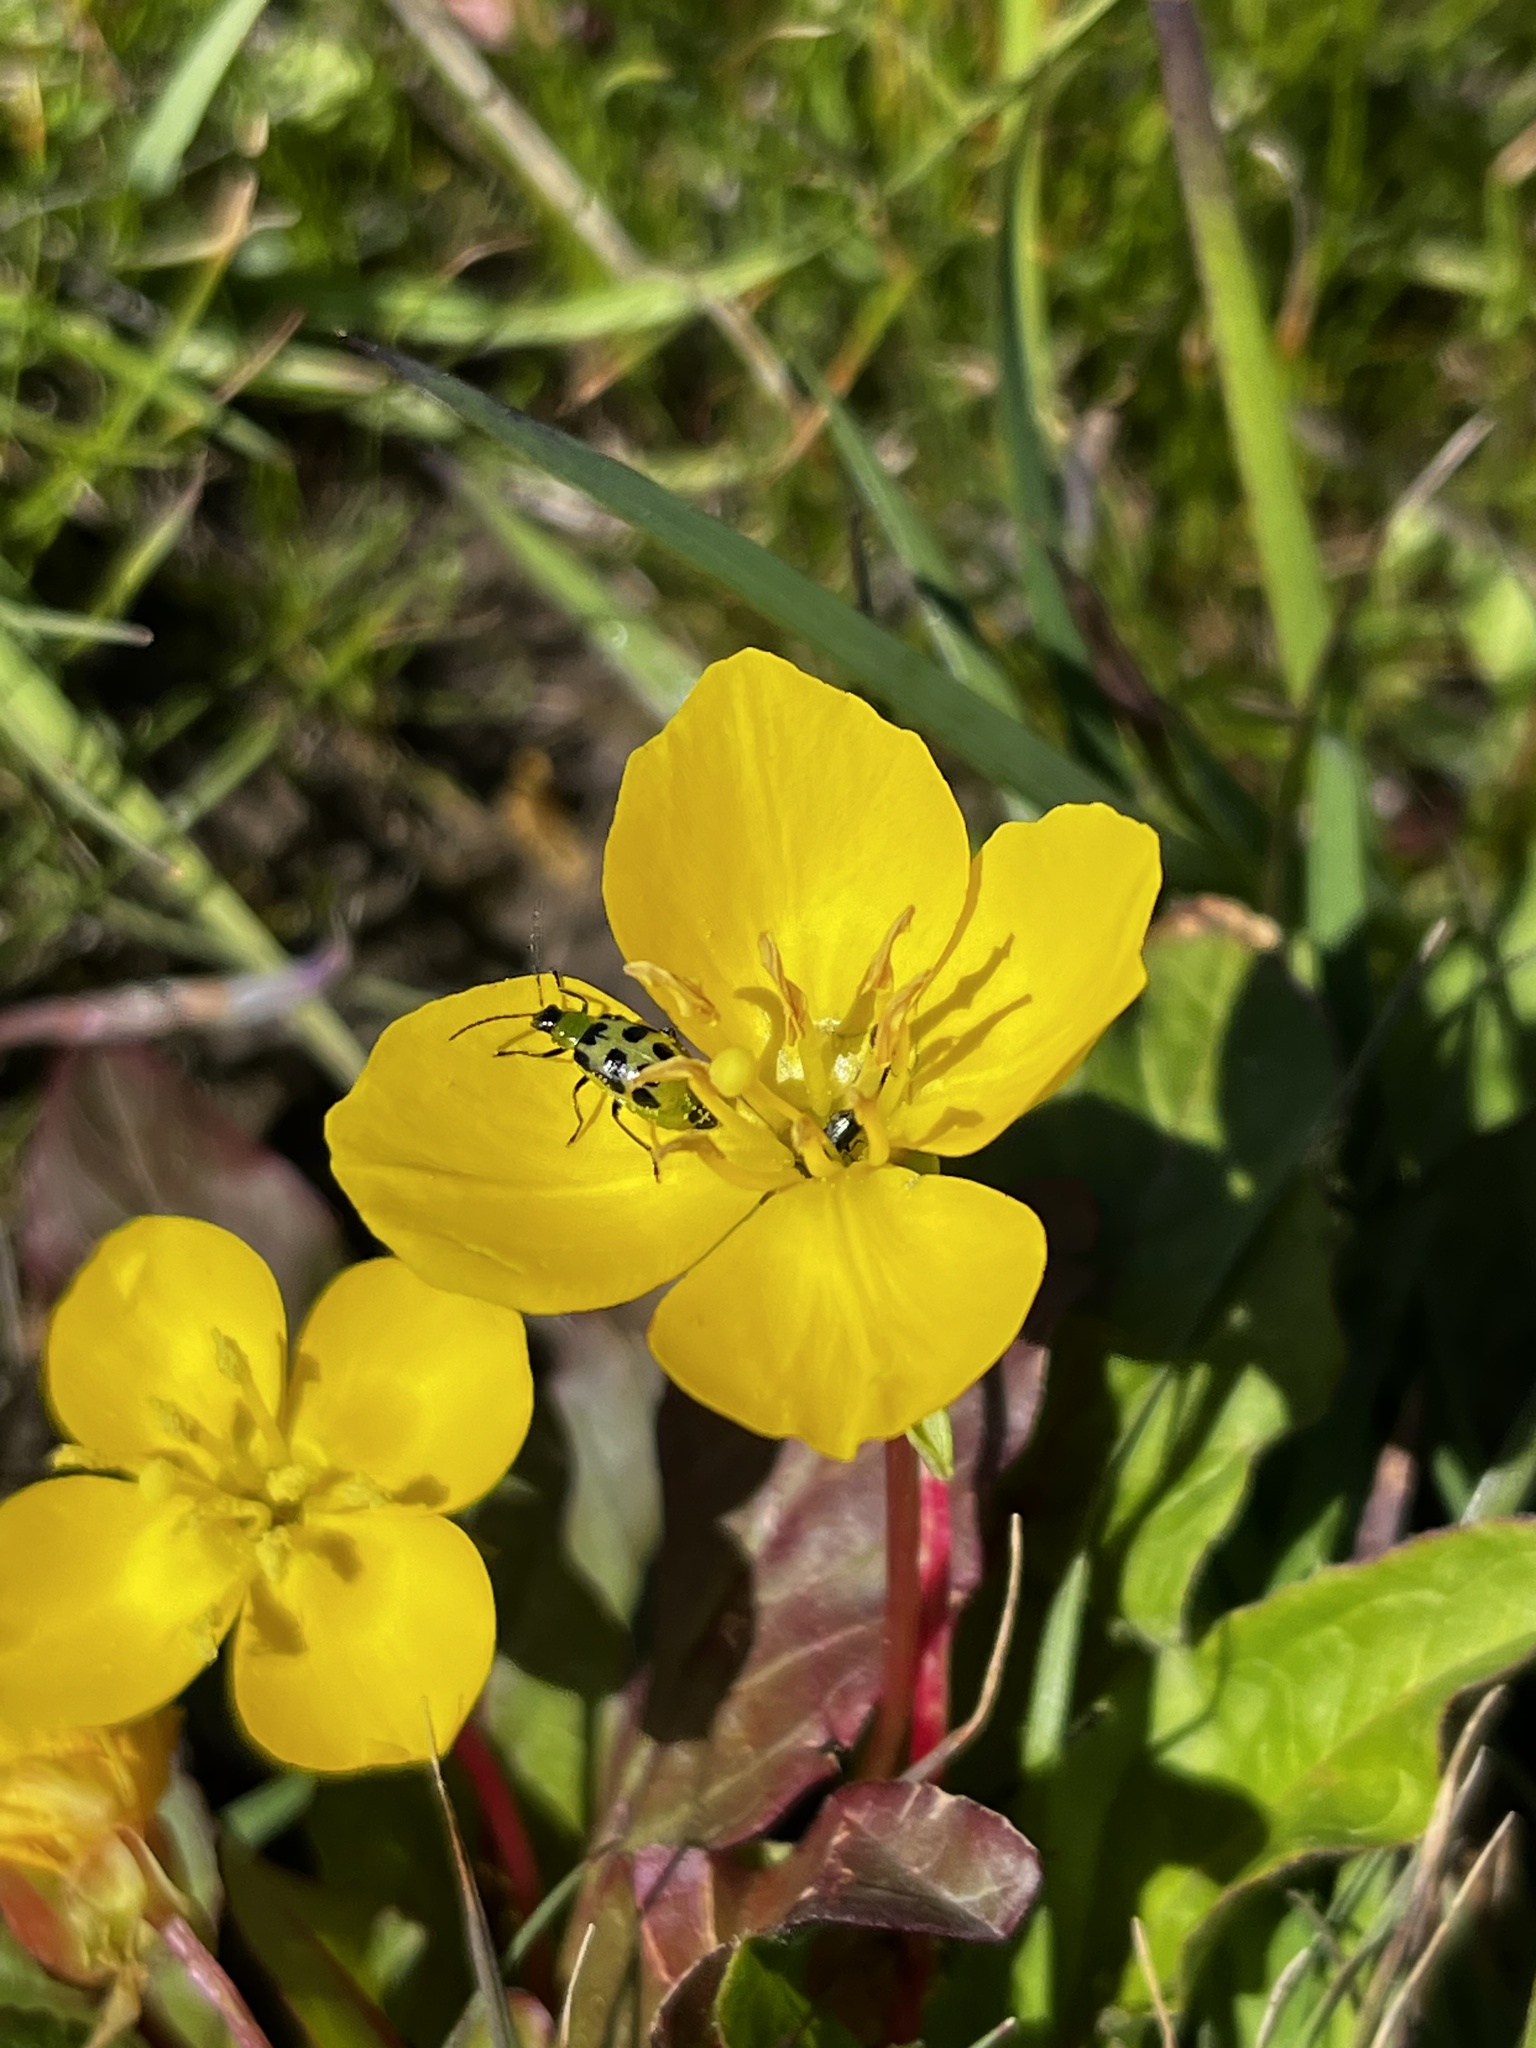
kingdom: Animalia
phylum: Arthropoda
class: Insecta
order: Coleoptera
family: Chrysomelidae
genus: Diabrotica
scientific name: Diabrotica undecimpunctata
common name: Spotted cucumber beetle
